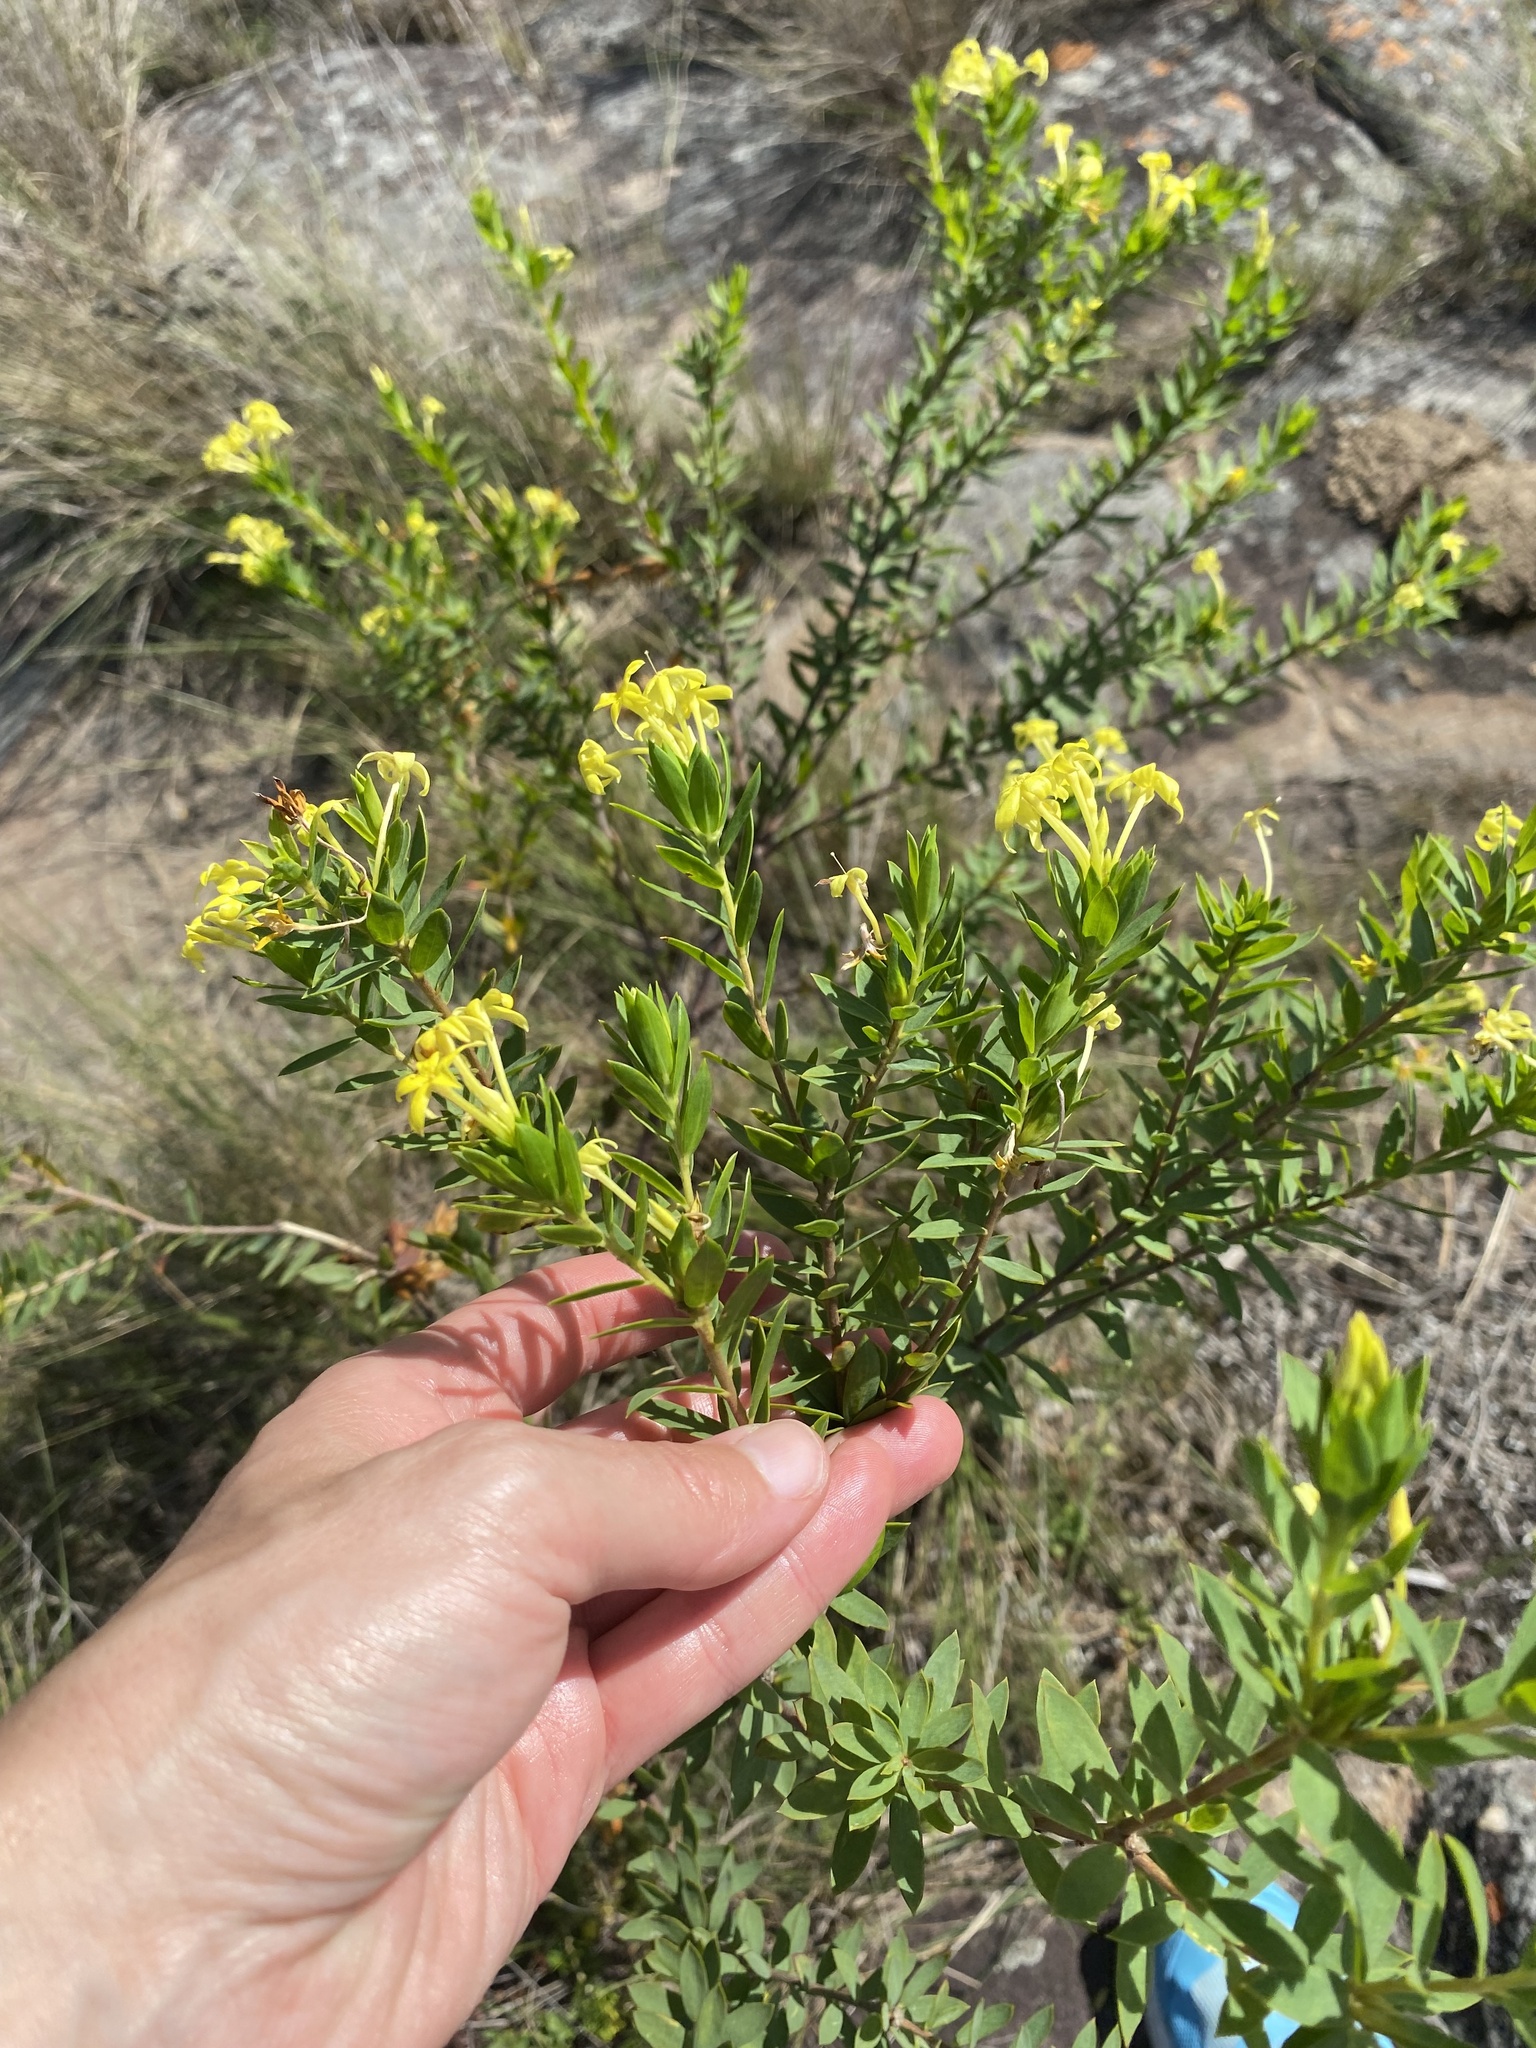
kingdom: Plantae
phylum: Tracheophyta
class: Magnoliopsida
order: Malvales
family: Thymelaeaceae
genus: Gnidia
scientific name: Gnidia triplinervis
